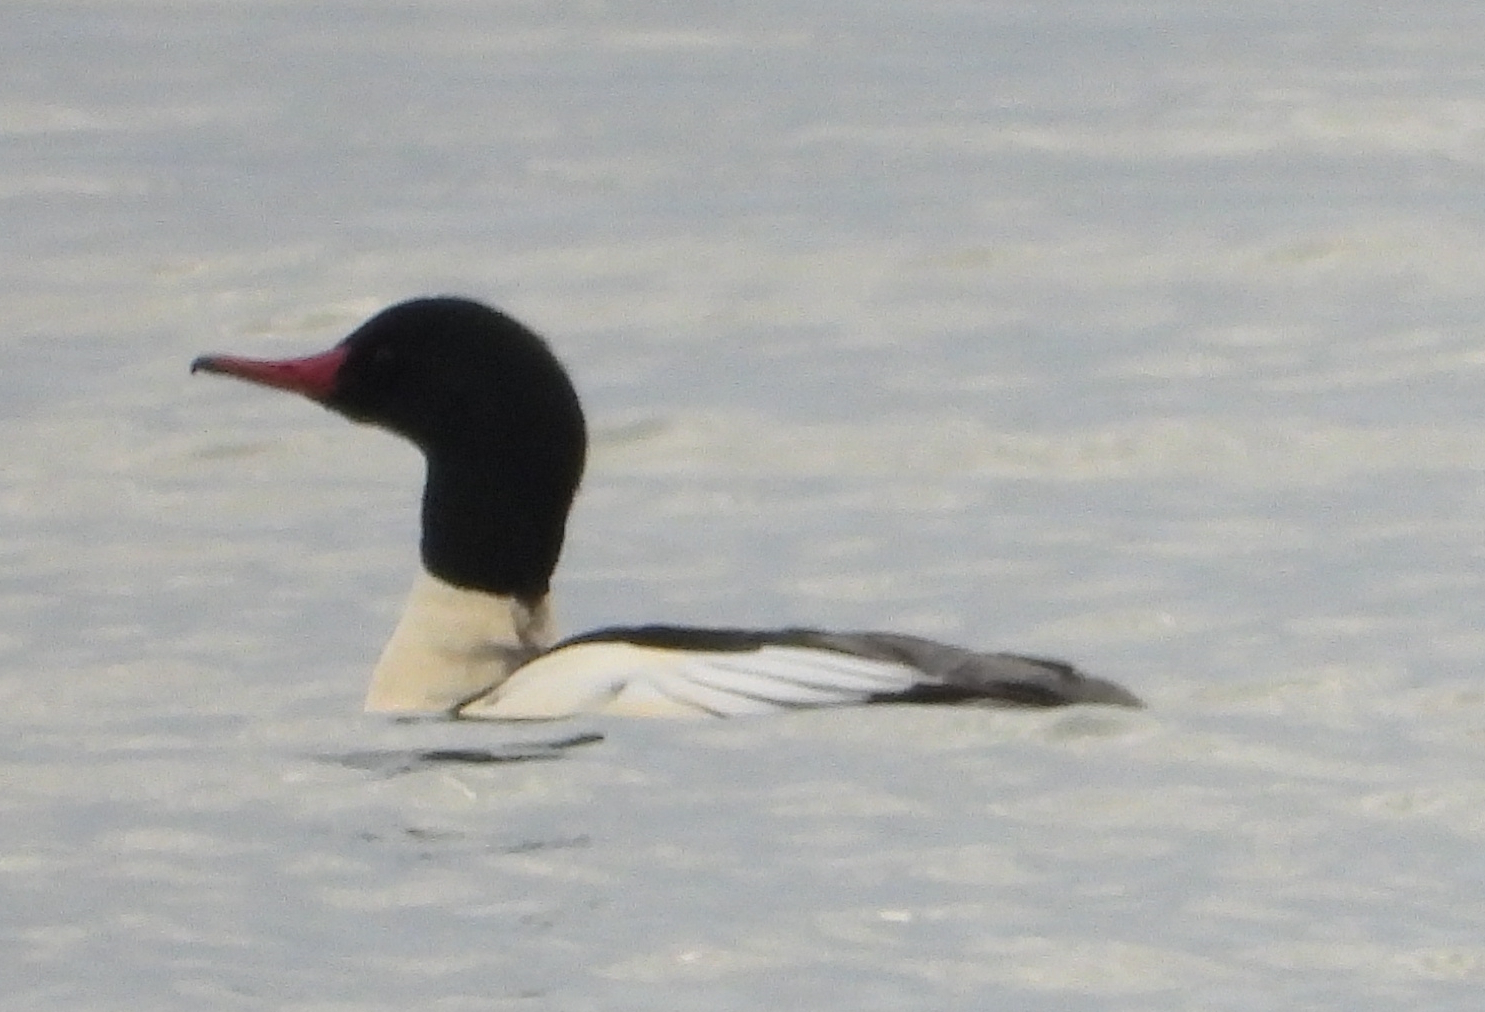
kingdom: Animalia
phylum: Chordata
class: Aves
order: Anseriformes
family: Anatidae
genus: Mergus
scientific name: Mergus merganser
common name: Common merganser
